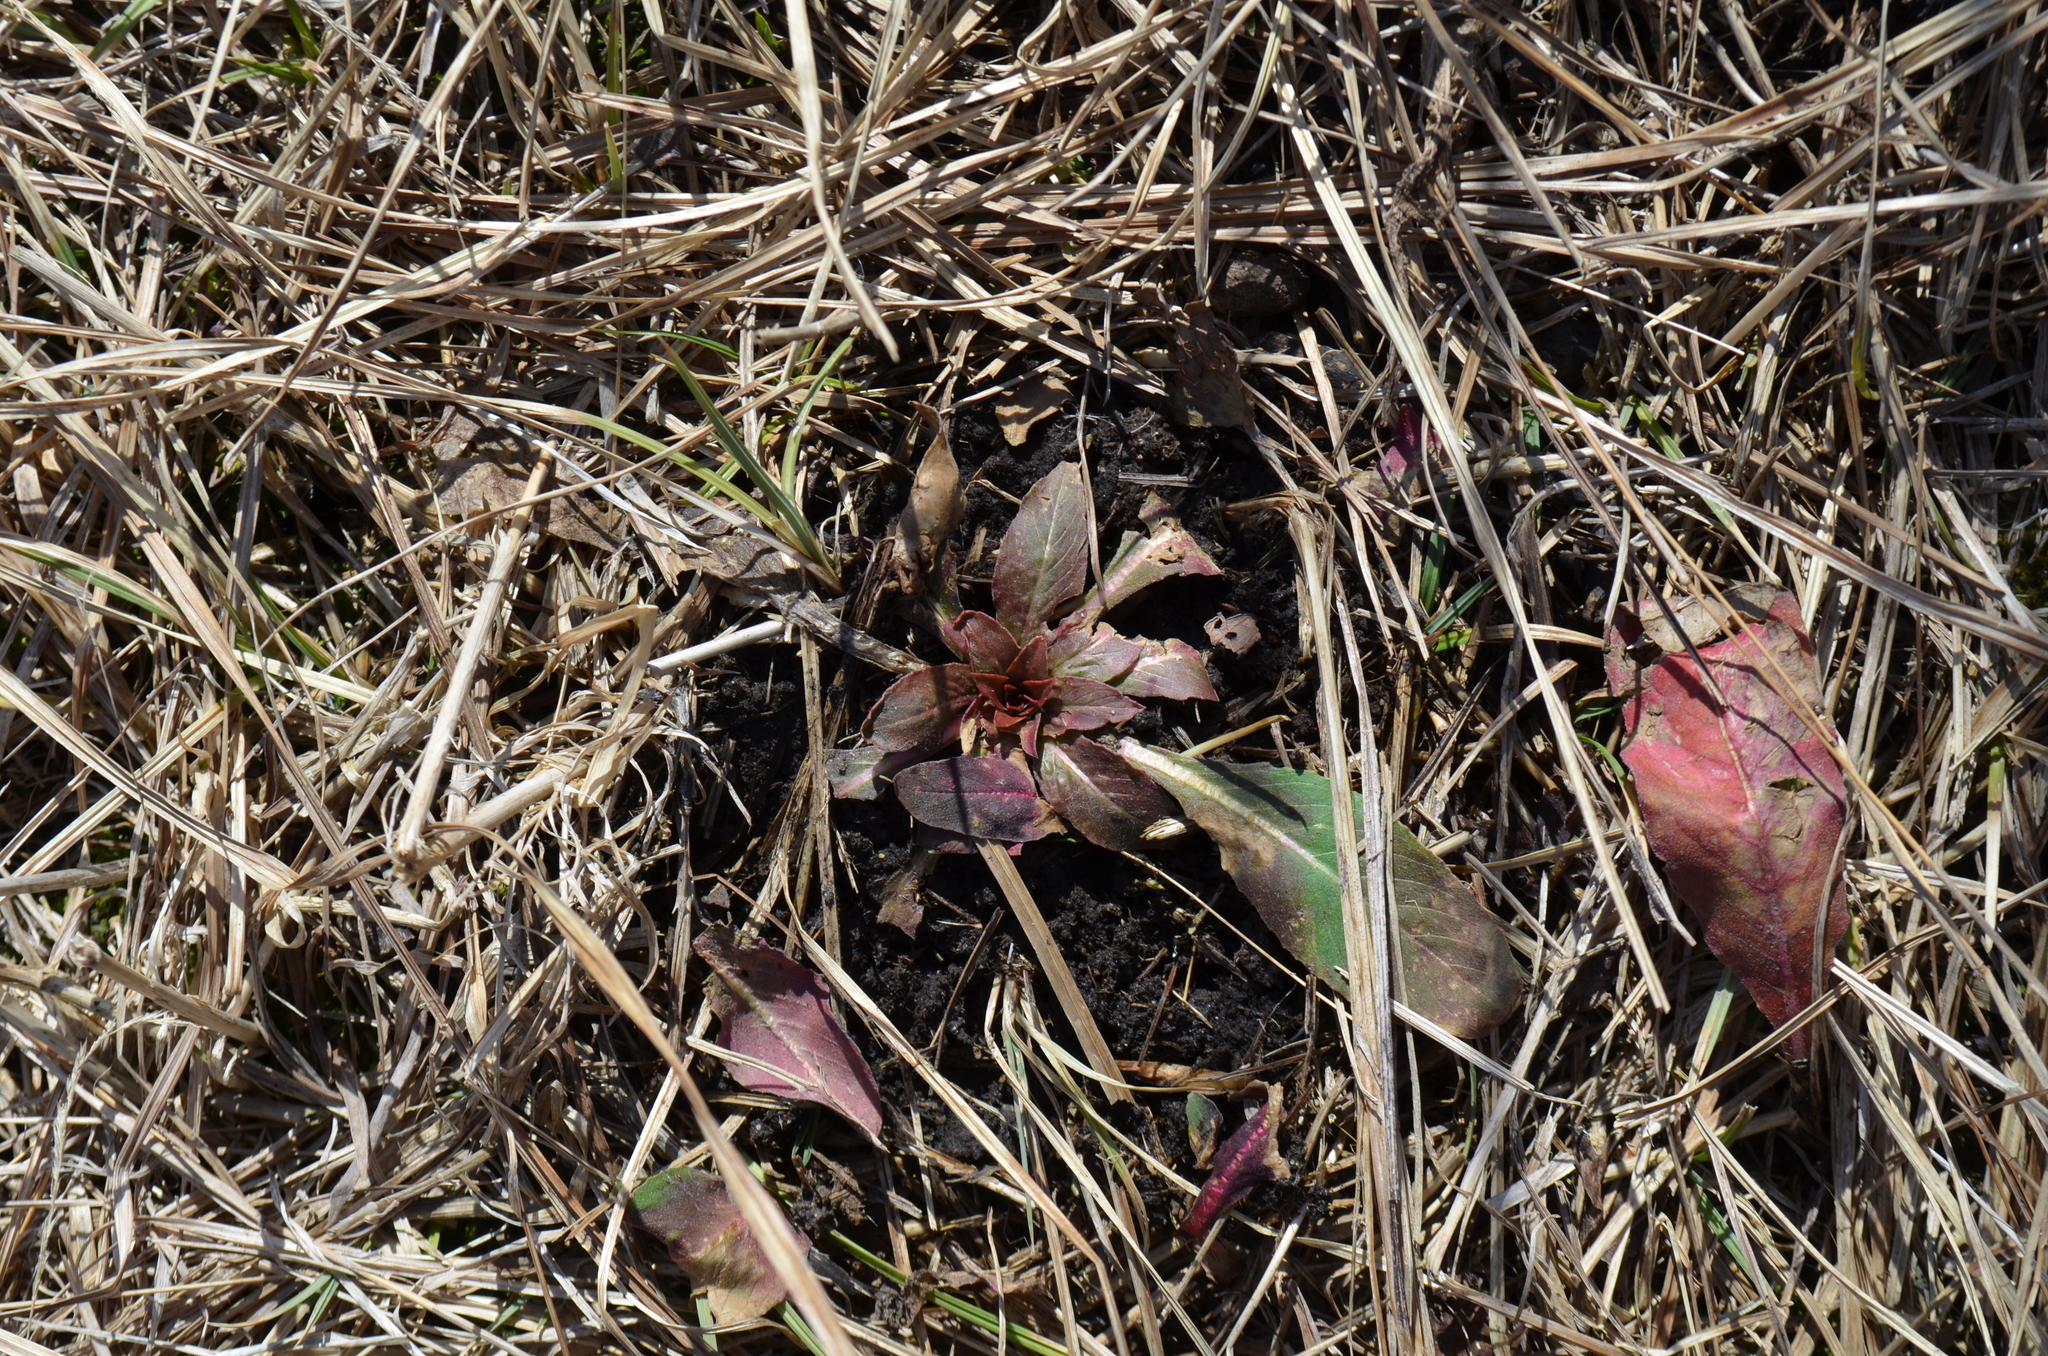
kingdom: Plantae
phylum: Tracheophyta
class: Magnoliopsida
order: Myrtales
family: Onagraceae
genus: Oenothera
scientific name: Oenothera biennis
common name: Common evening-primrose
